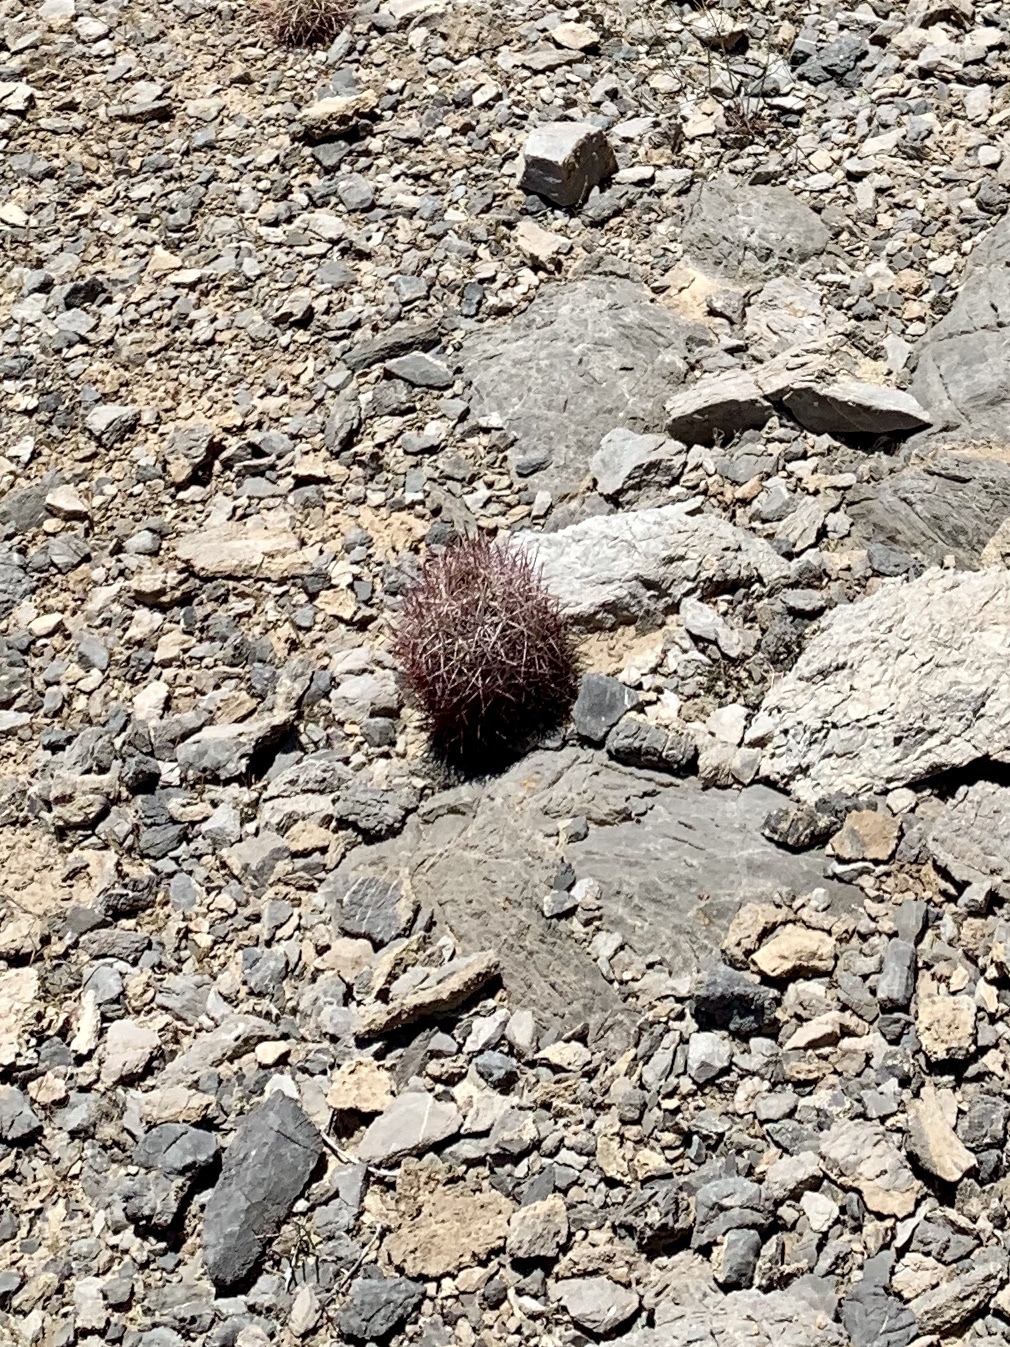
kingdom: Plantae
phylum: Tracheophyta
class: Magnoliopsida
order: Caryophyllales
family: Cactaceae
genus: Sclerocactus
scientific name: Sclerocactus johnsonii
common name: Eight-spine fishhook cactus
